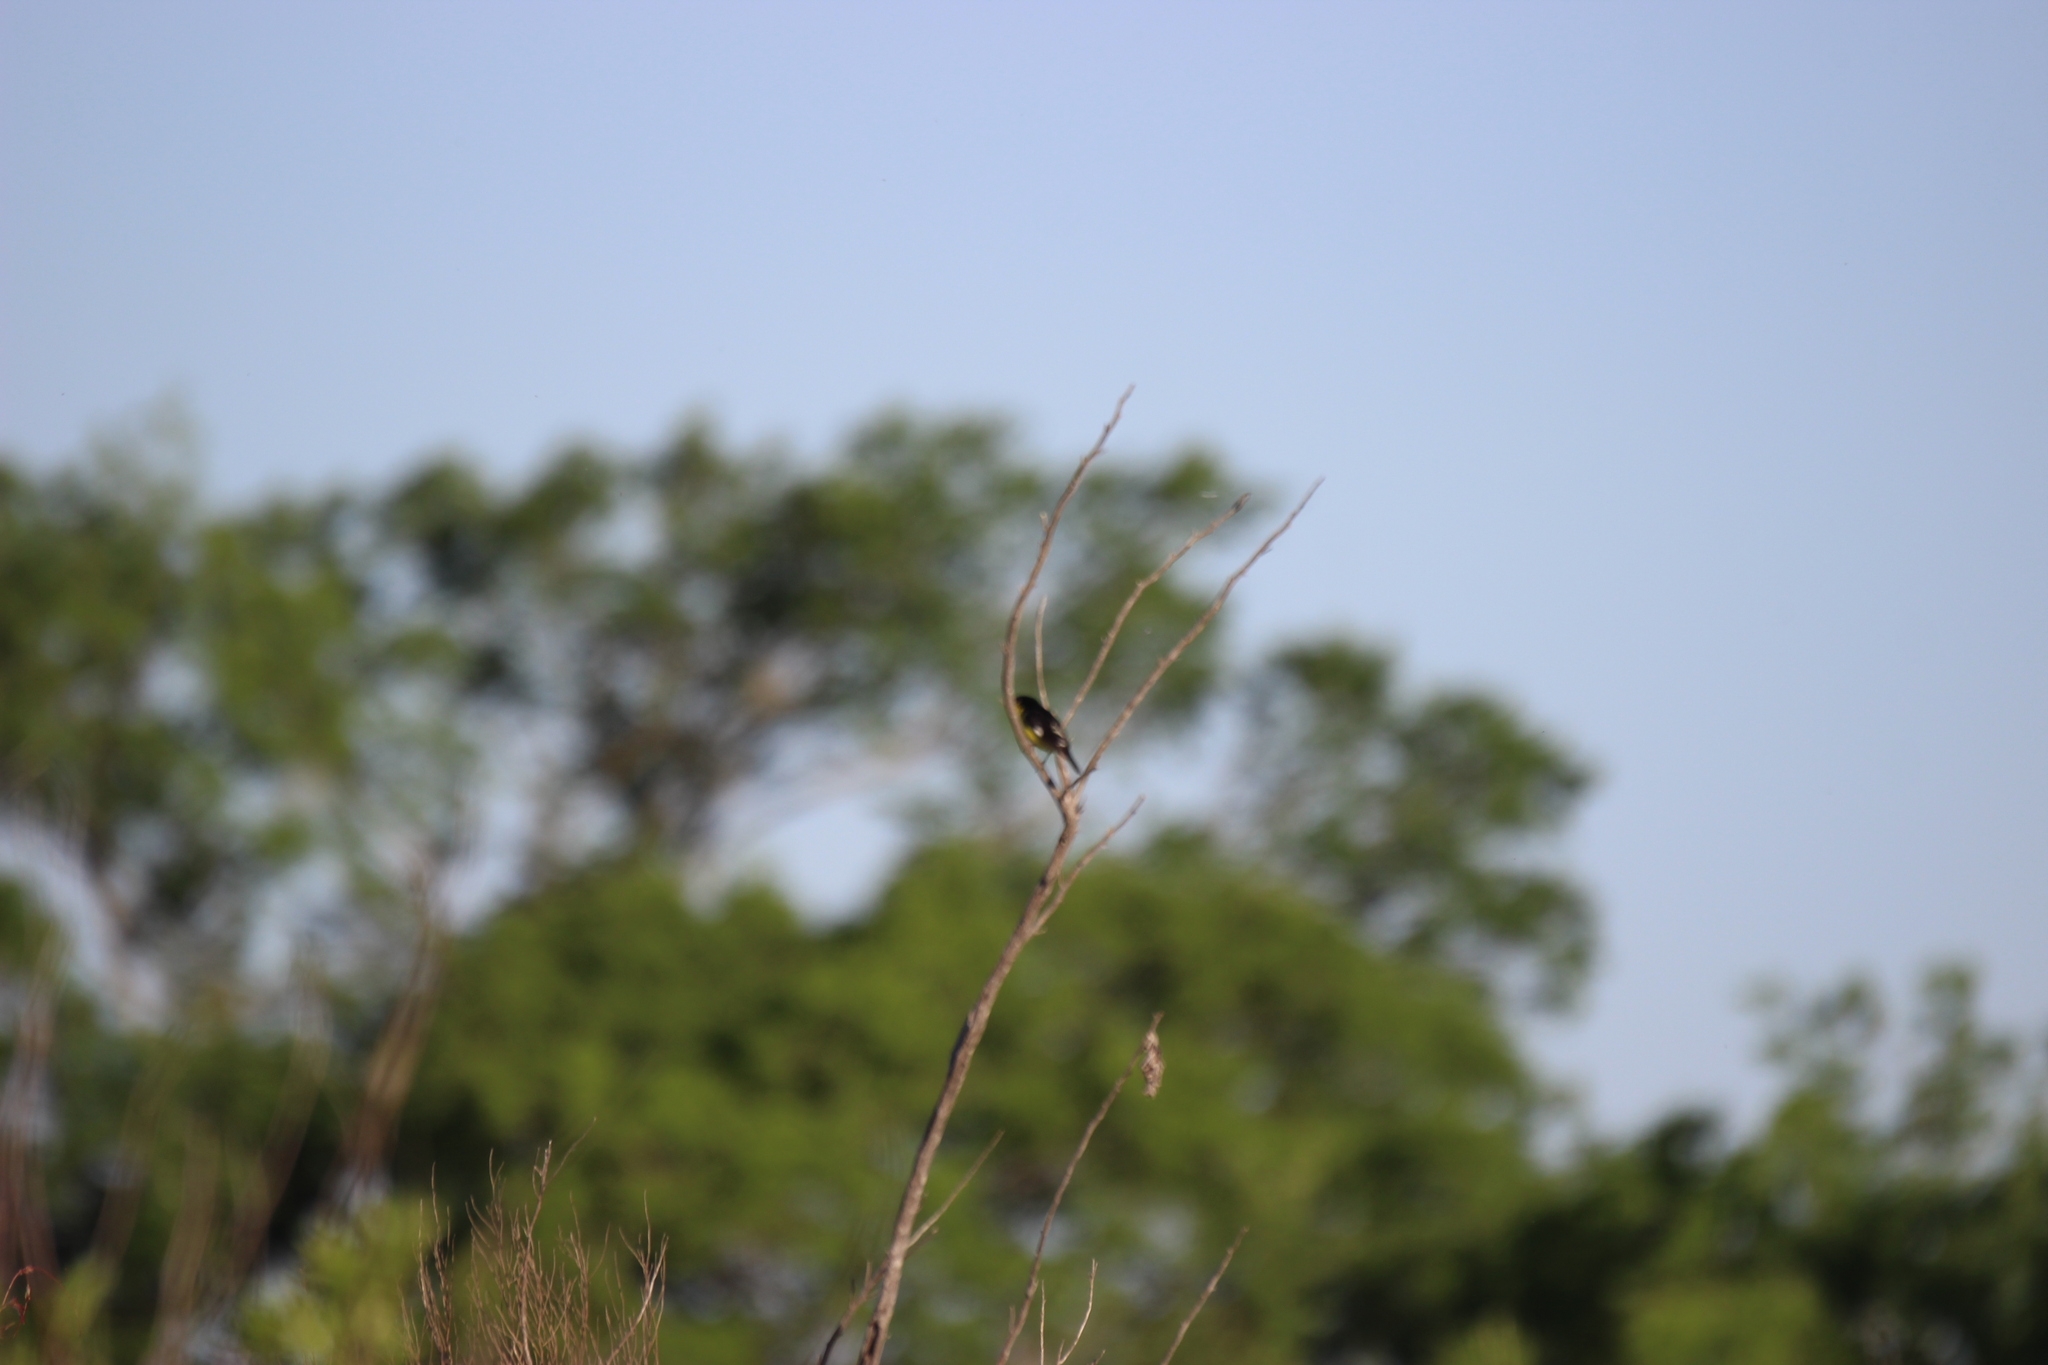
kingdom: Animalia
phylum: Chordata
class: Aves
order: Passeriformes
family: Fringillidae
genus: Spinus
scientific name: Spinus psaltria
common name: Lesser goldfinch
